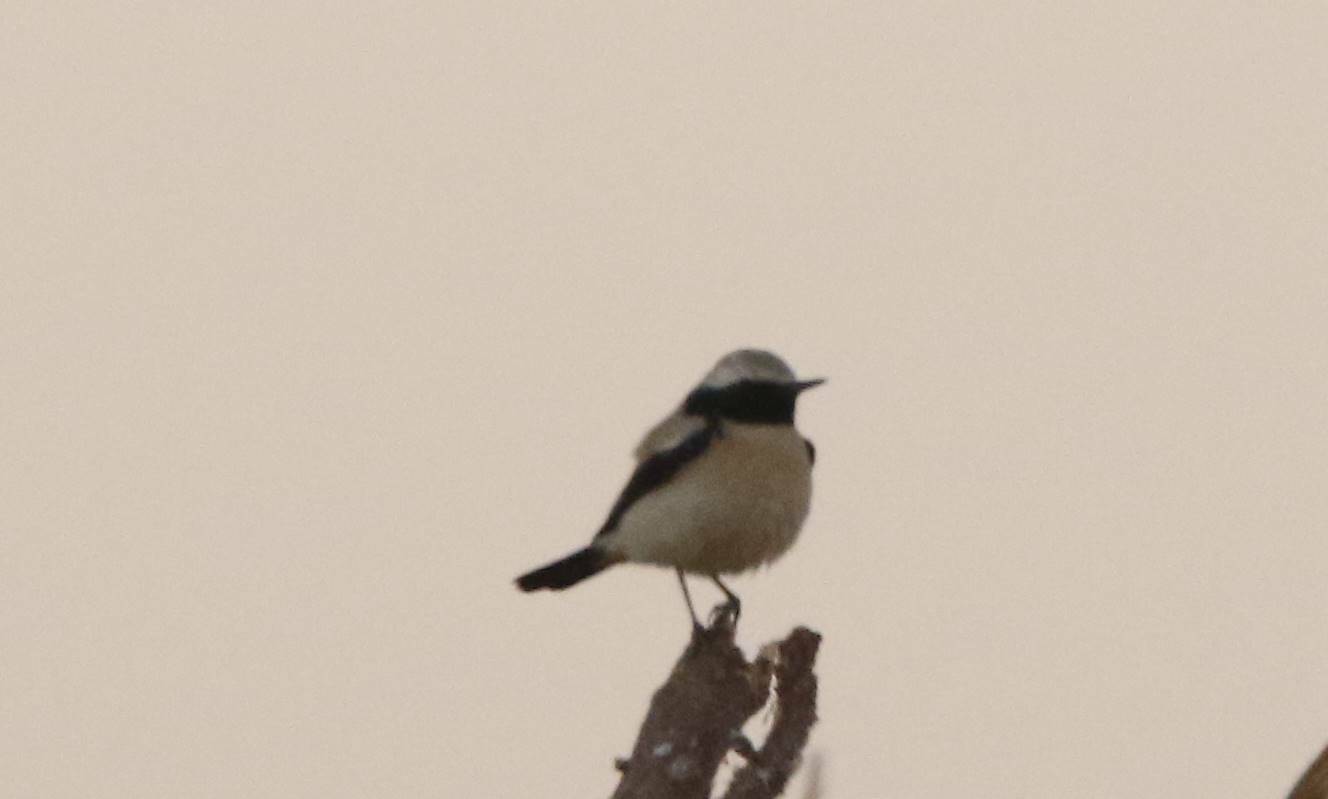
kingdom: Animalia
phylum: Chordata
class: Aves
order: Passeriformes
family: Muscicapidae
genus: Oenanthe
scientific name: Oenanthe deserti
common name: Desert wheatear
